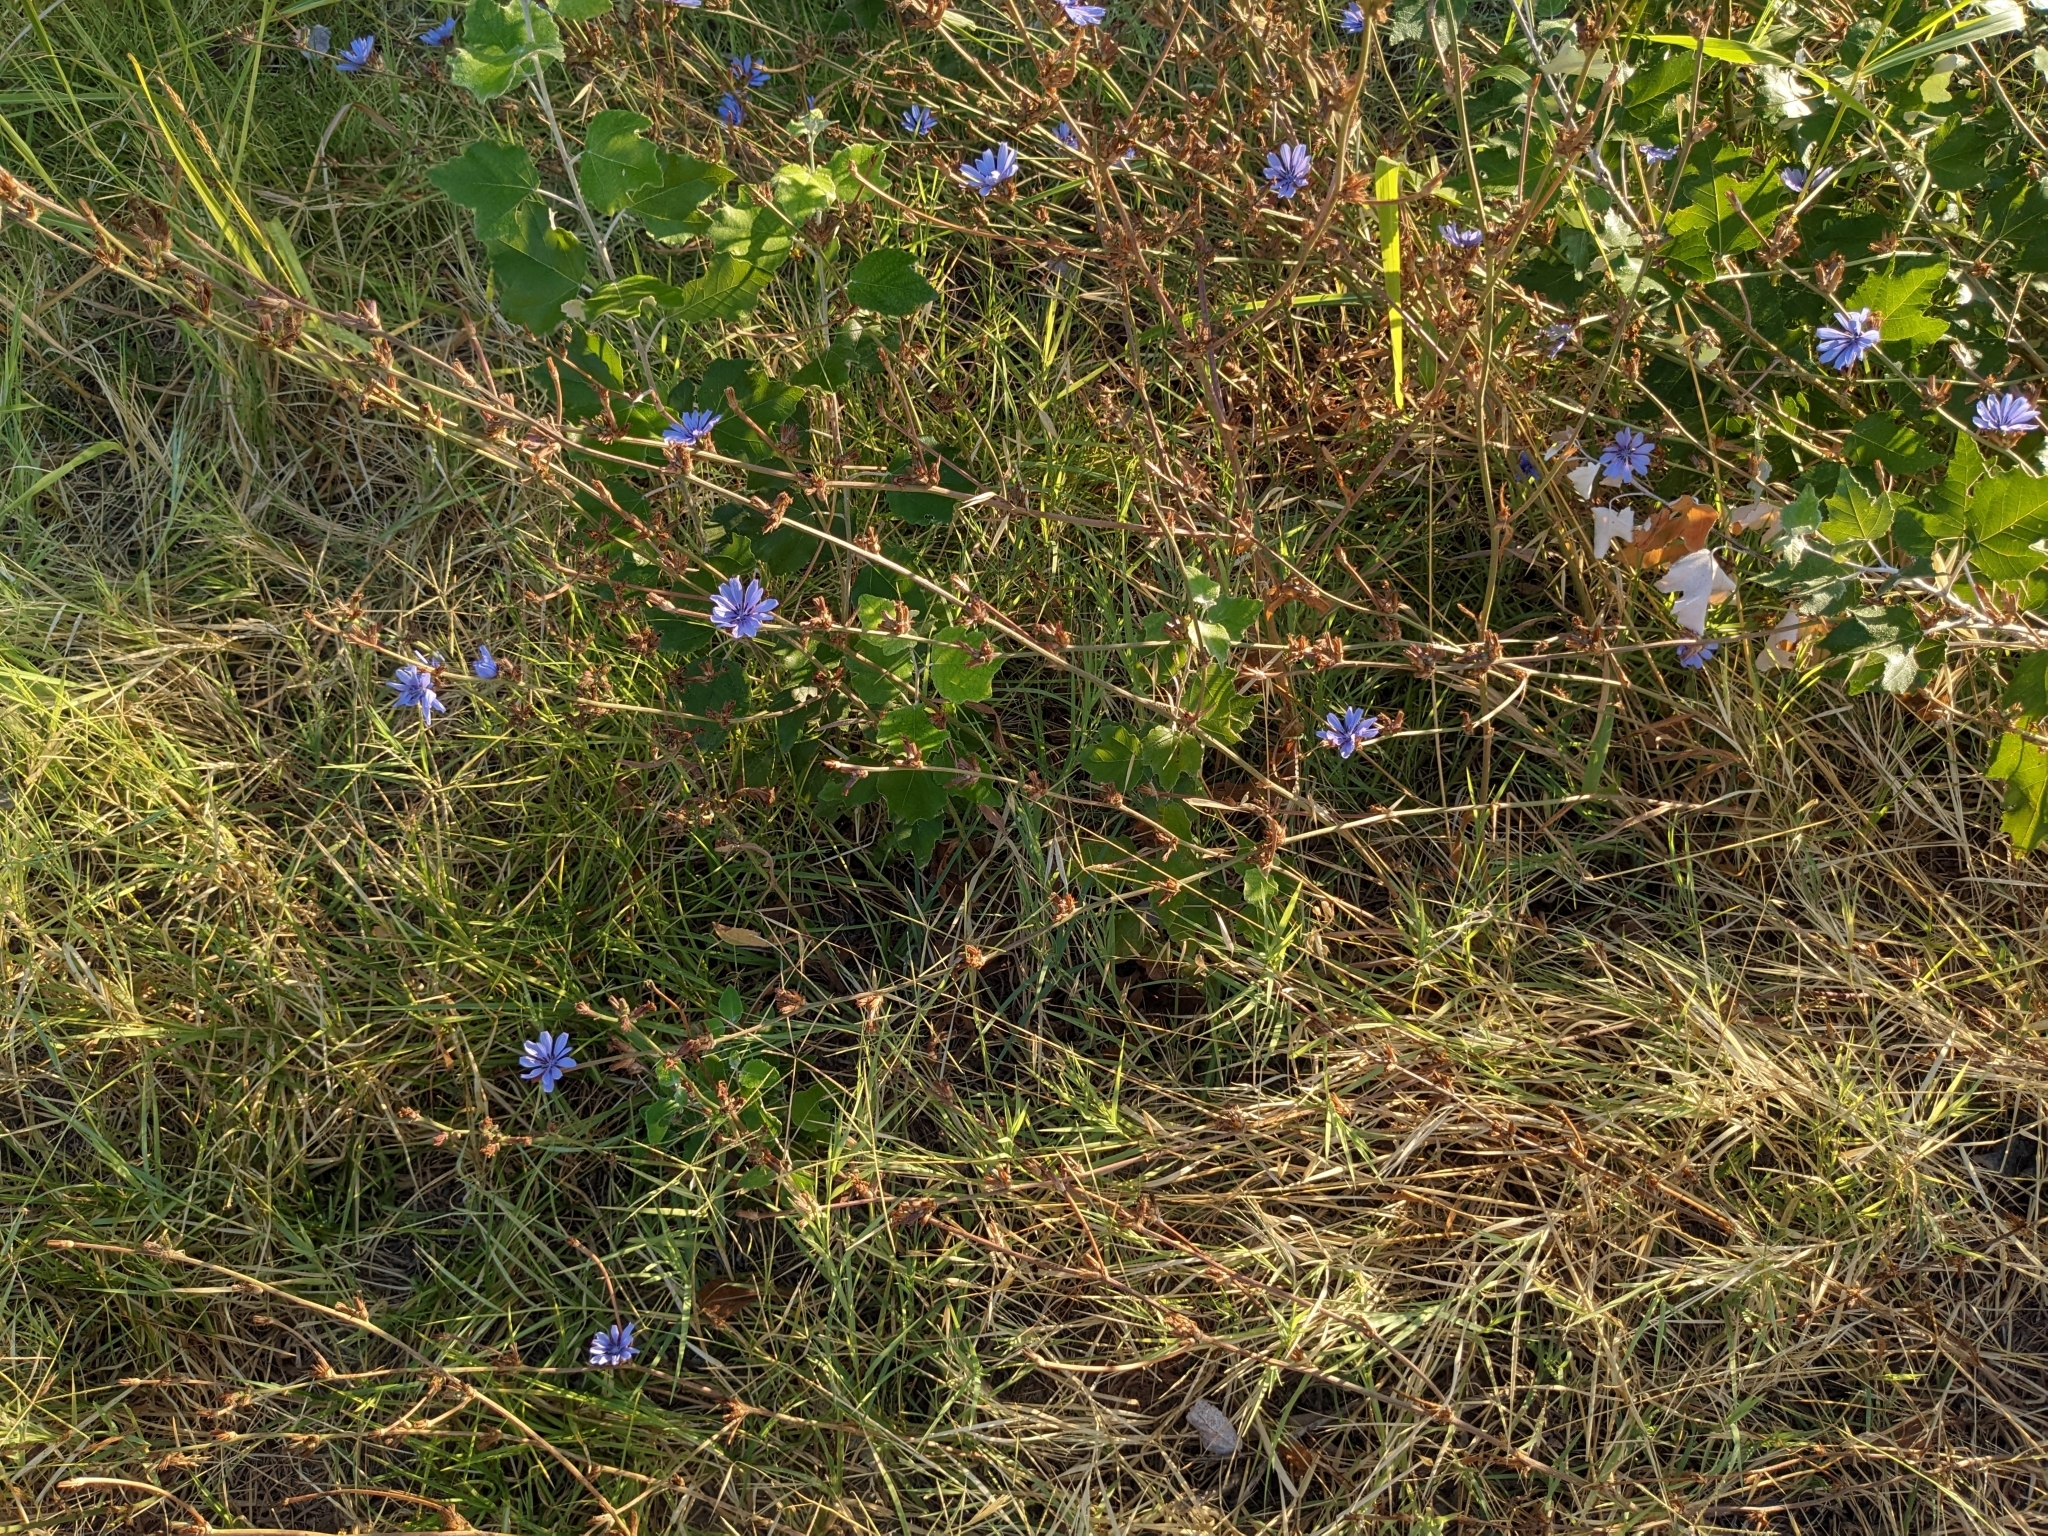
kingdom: Plantae
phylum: Tracheophyta
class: Magnoliopsida
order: Asterales
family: Asteraceae
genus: Cichorium
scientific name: Cichorium intybus
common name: Chicory
